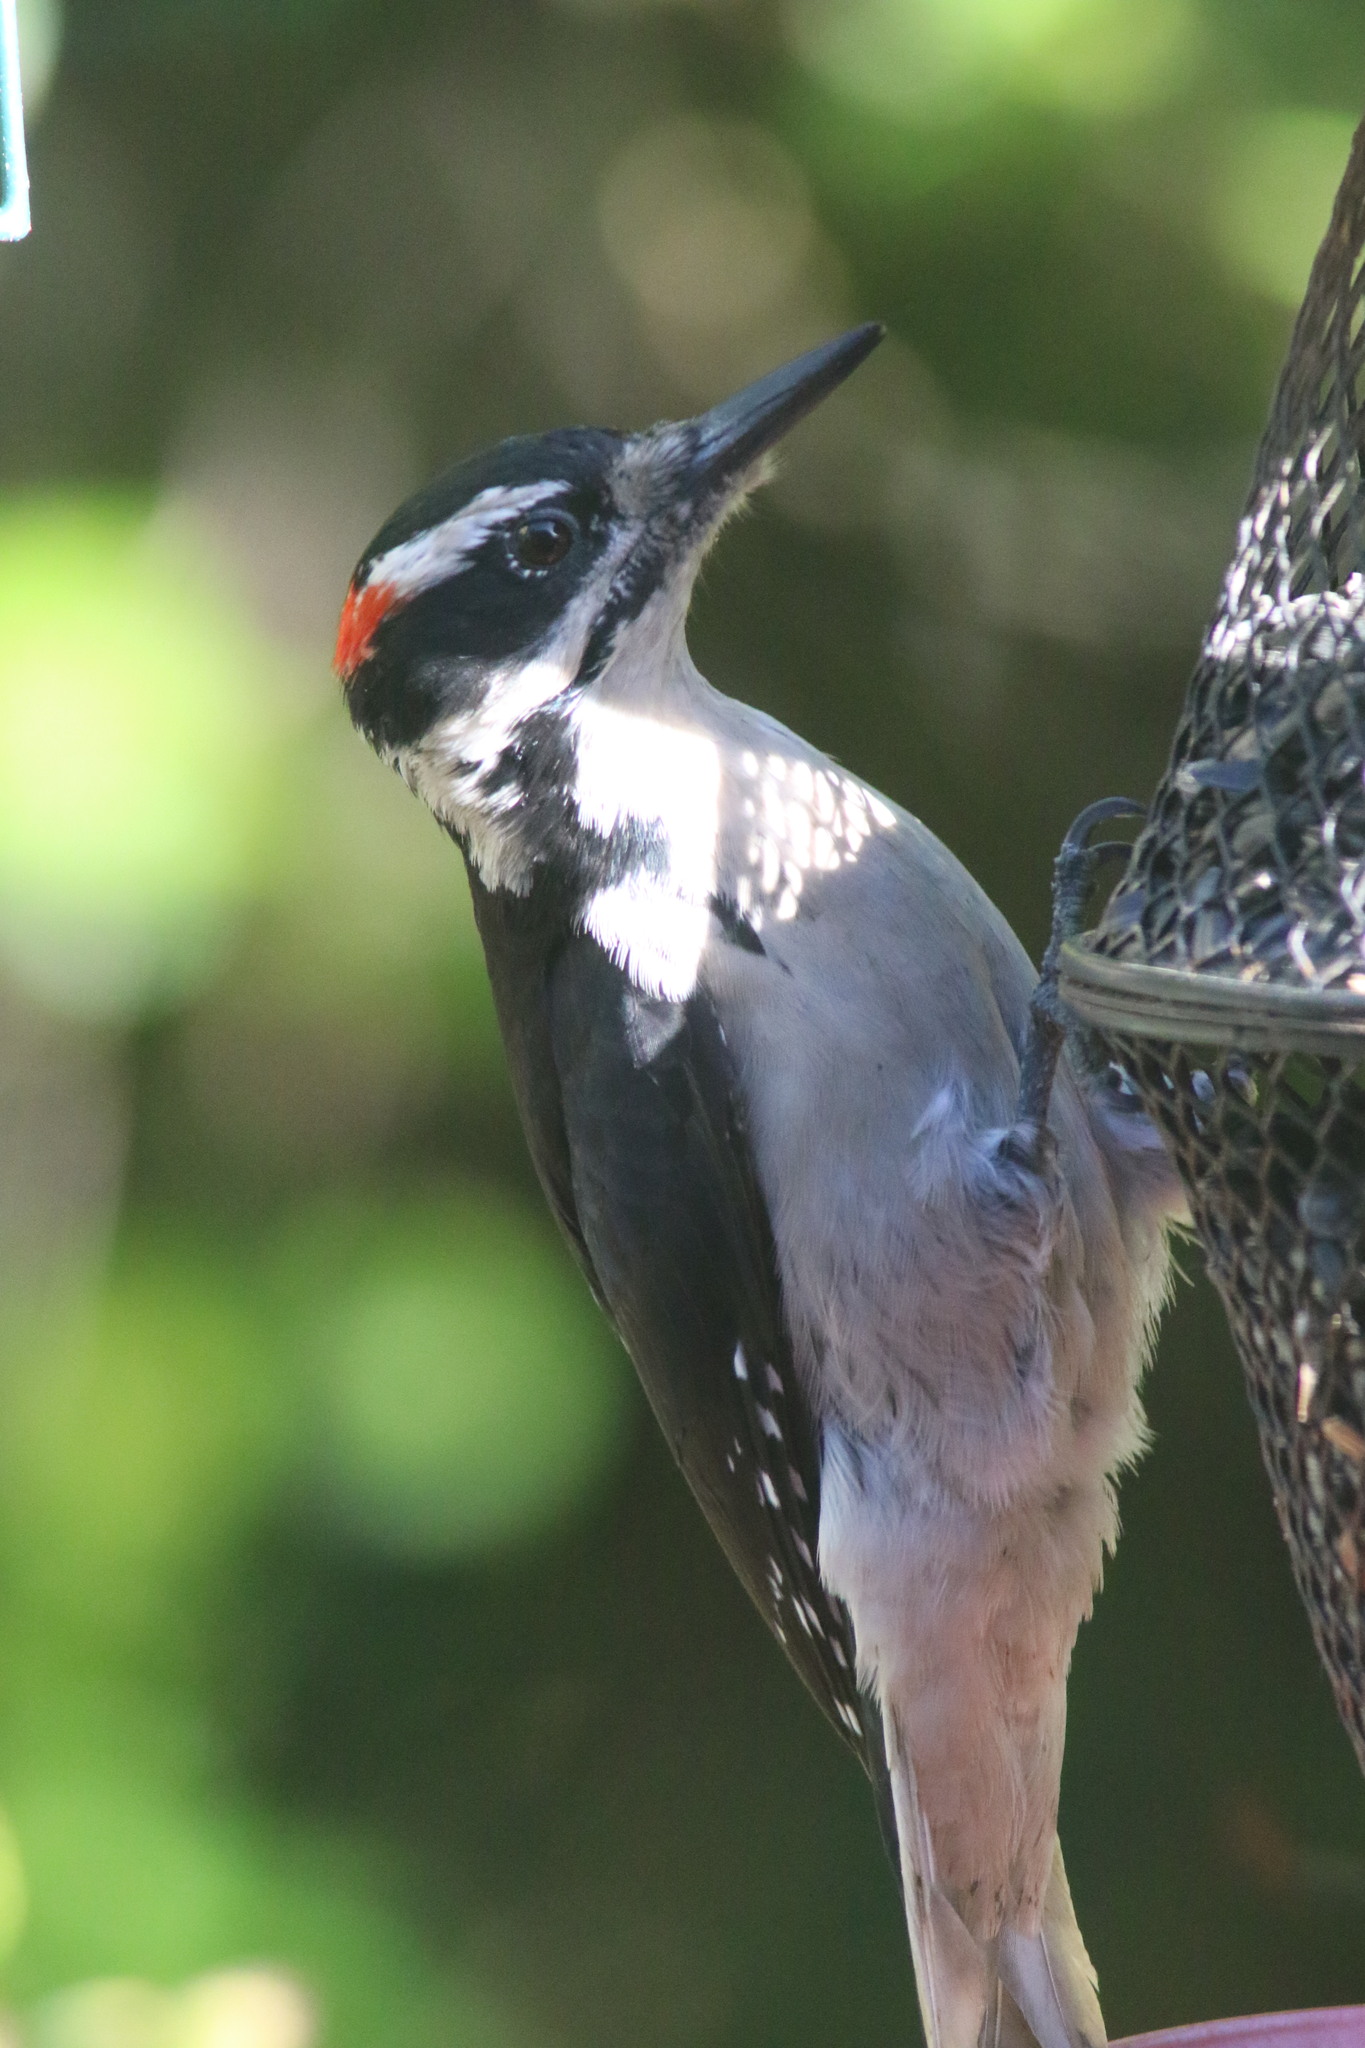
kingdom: Animalia
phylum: Chordata
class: Aves
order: Piciformes
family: Picidae
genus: Leuconotopicus
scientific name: Leuconotopicus villosus
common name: Hairy woodpecker
